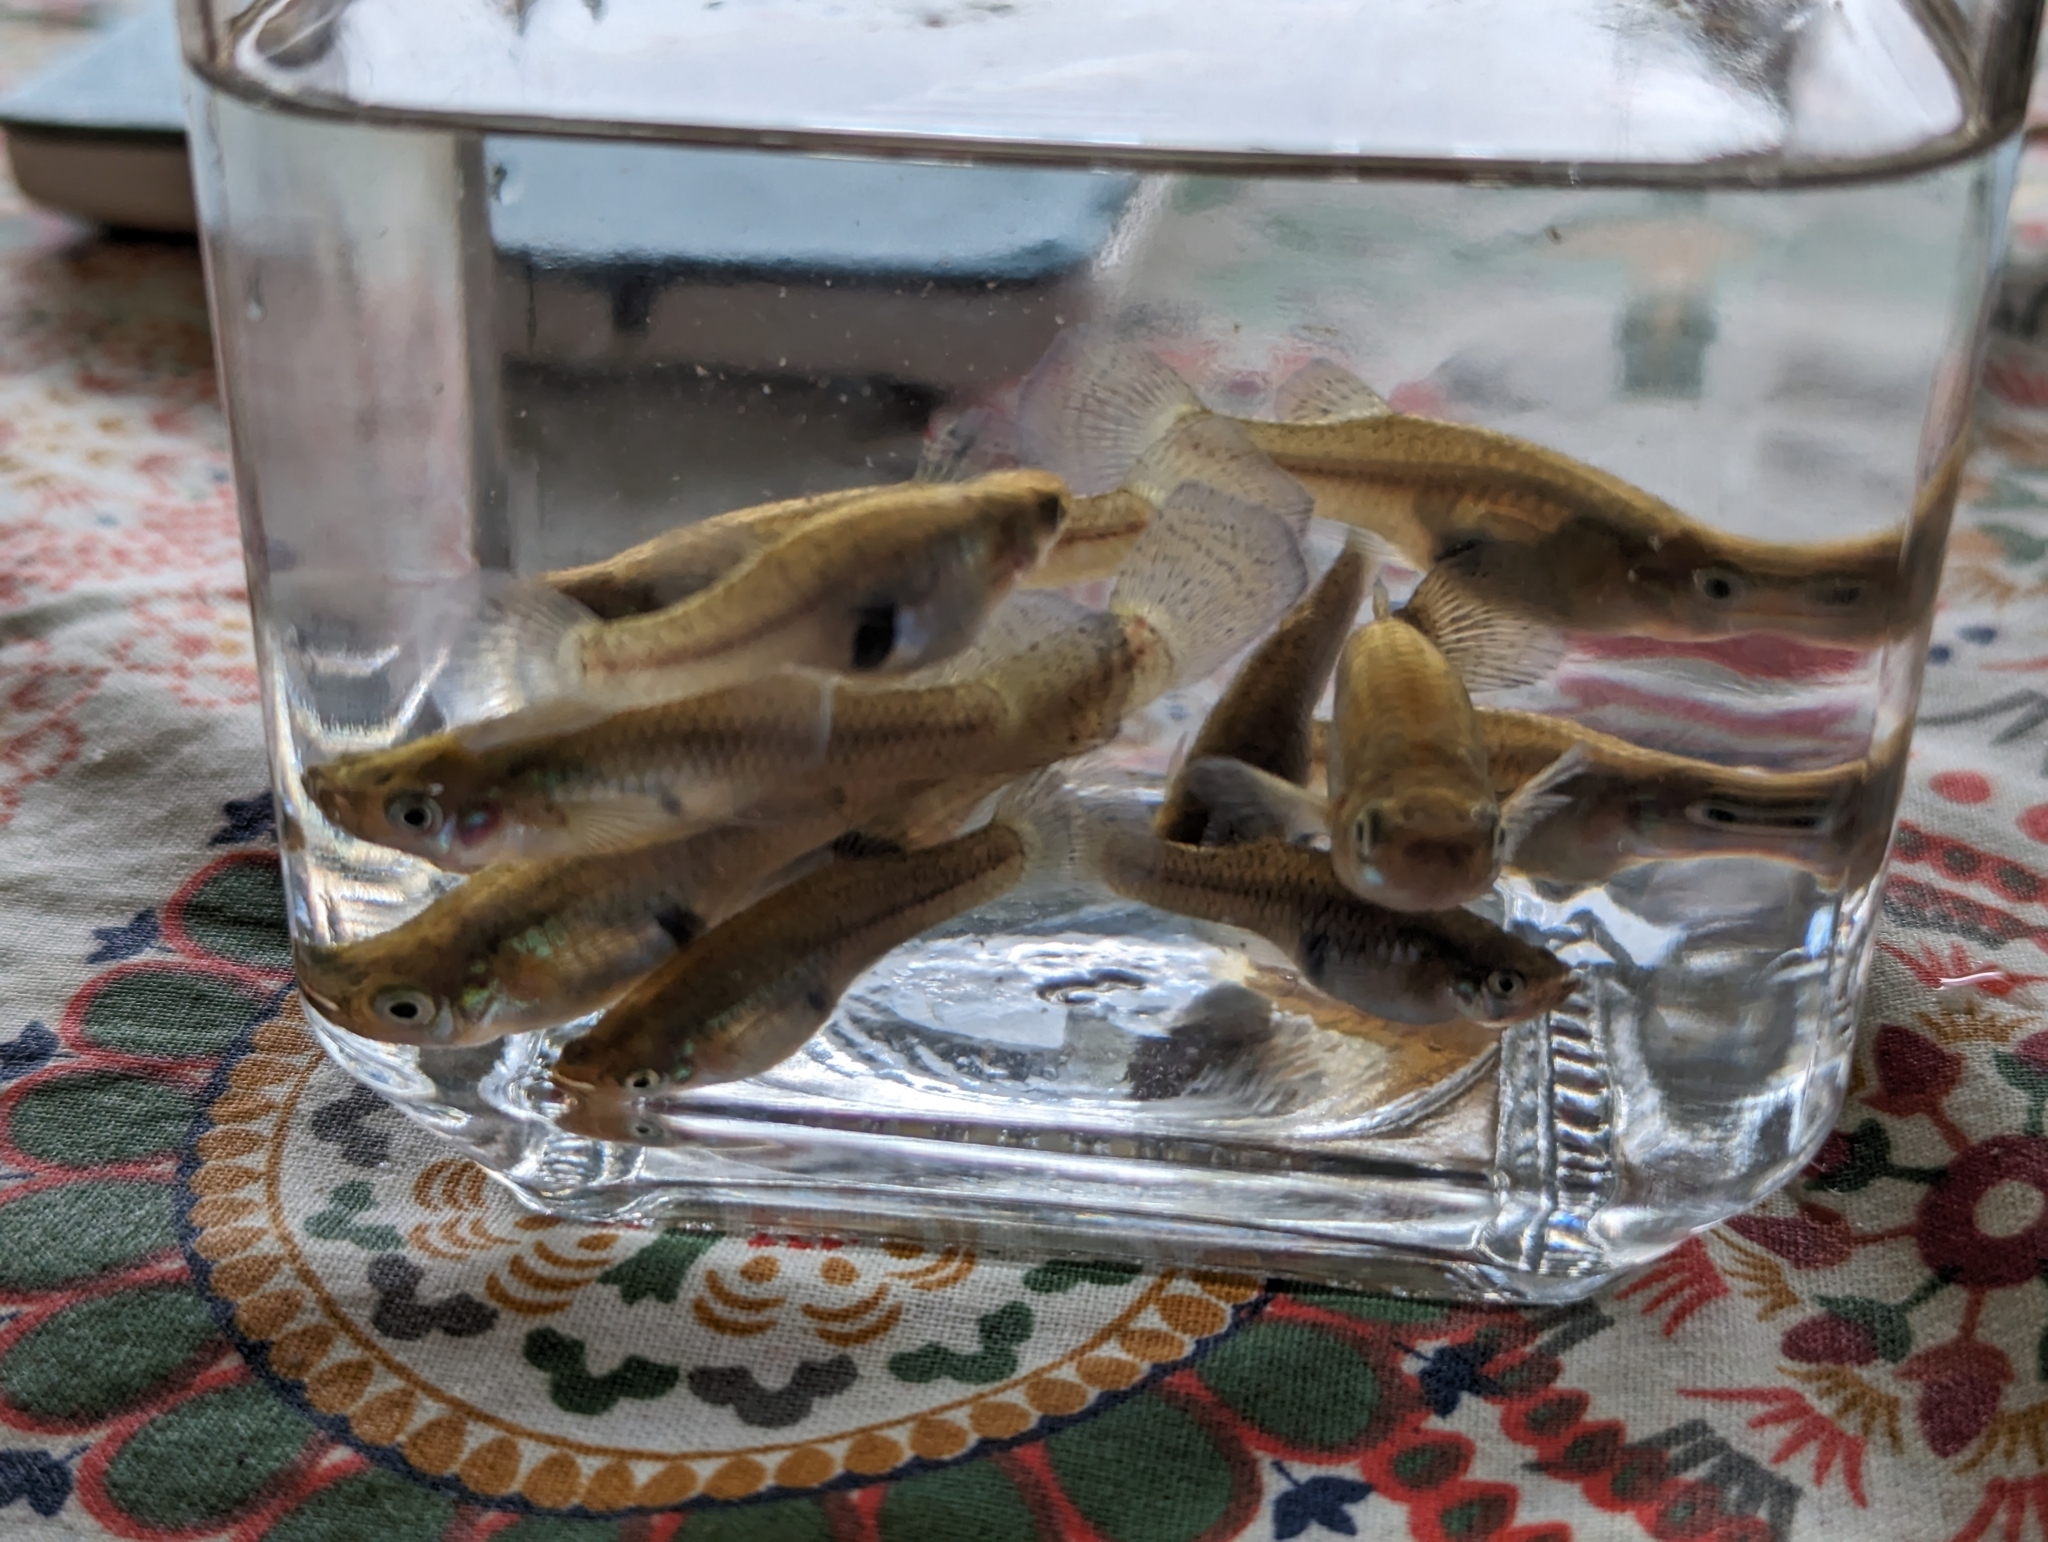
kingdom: Animalia
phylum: Chordata
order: Cyprinodontiformes
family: Poeciliidae
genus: Gambusia
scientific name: Gambusia holbrooki
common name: Eastern mosquitofish
